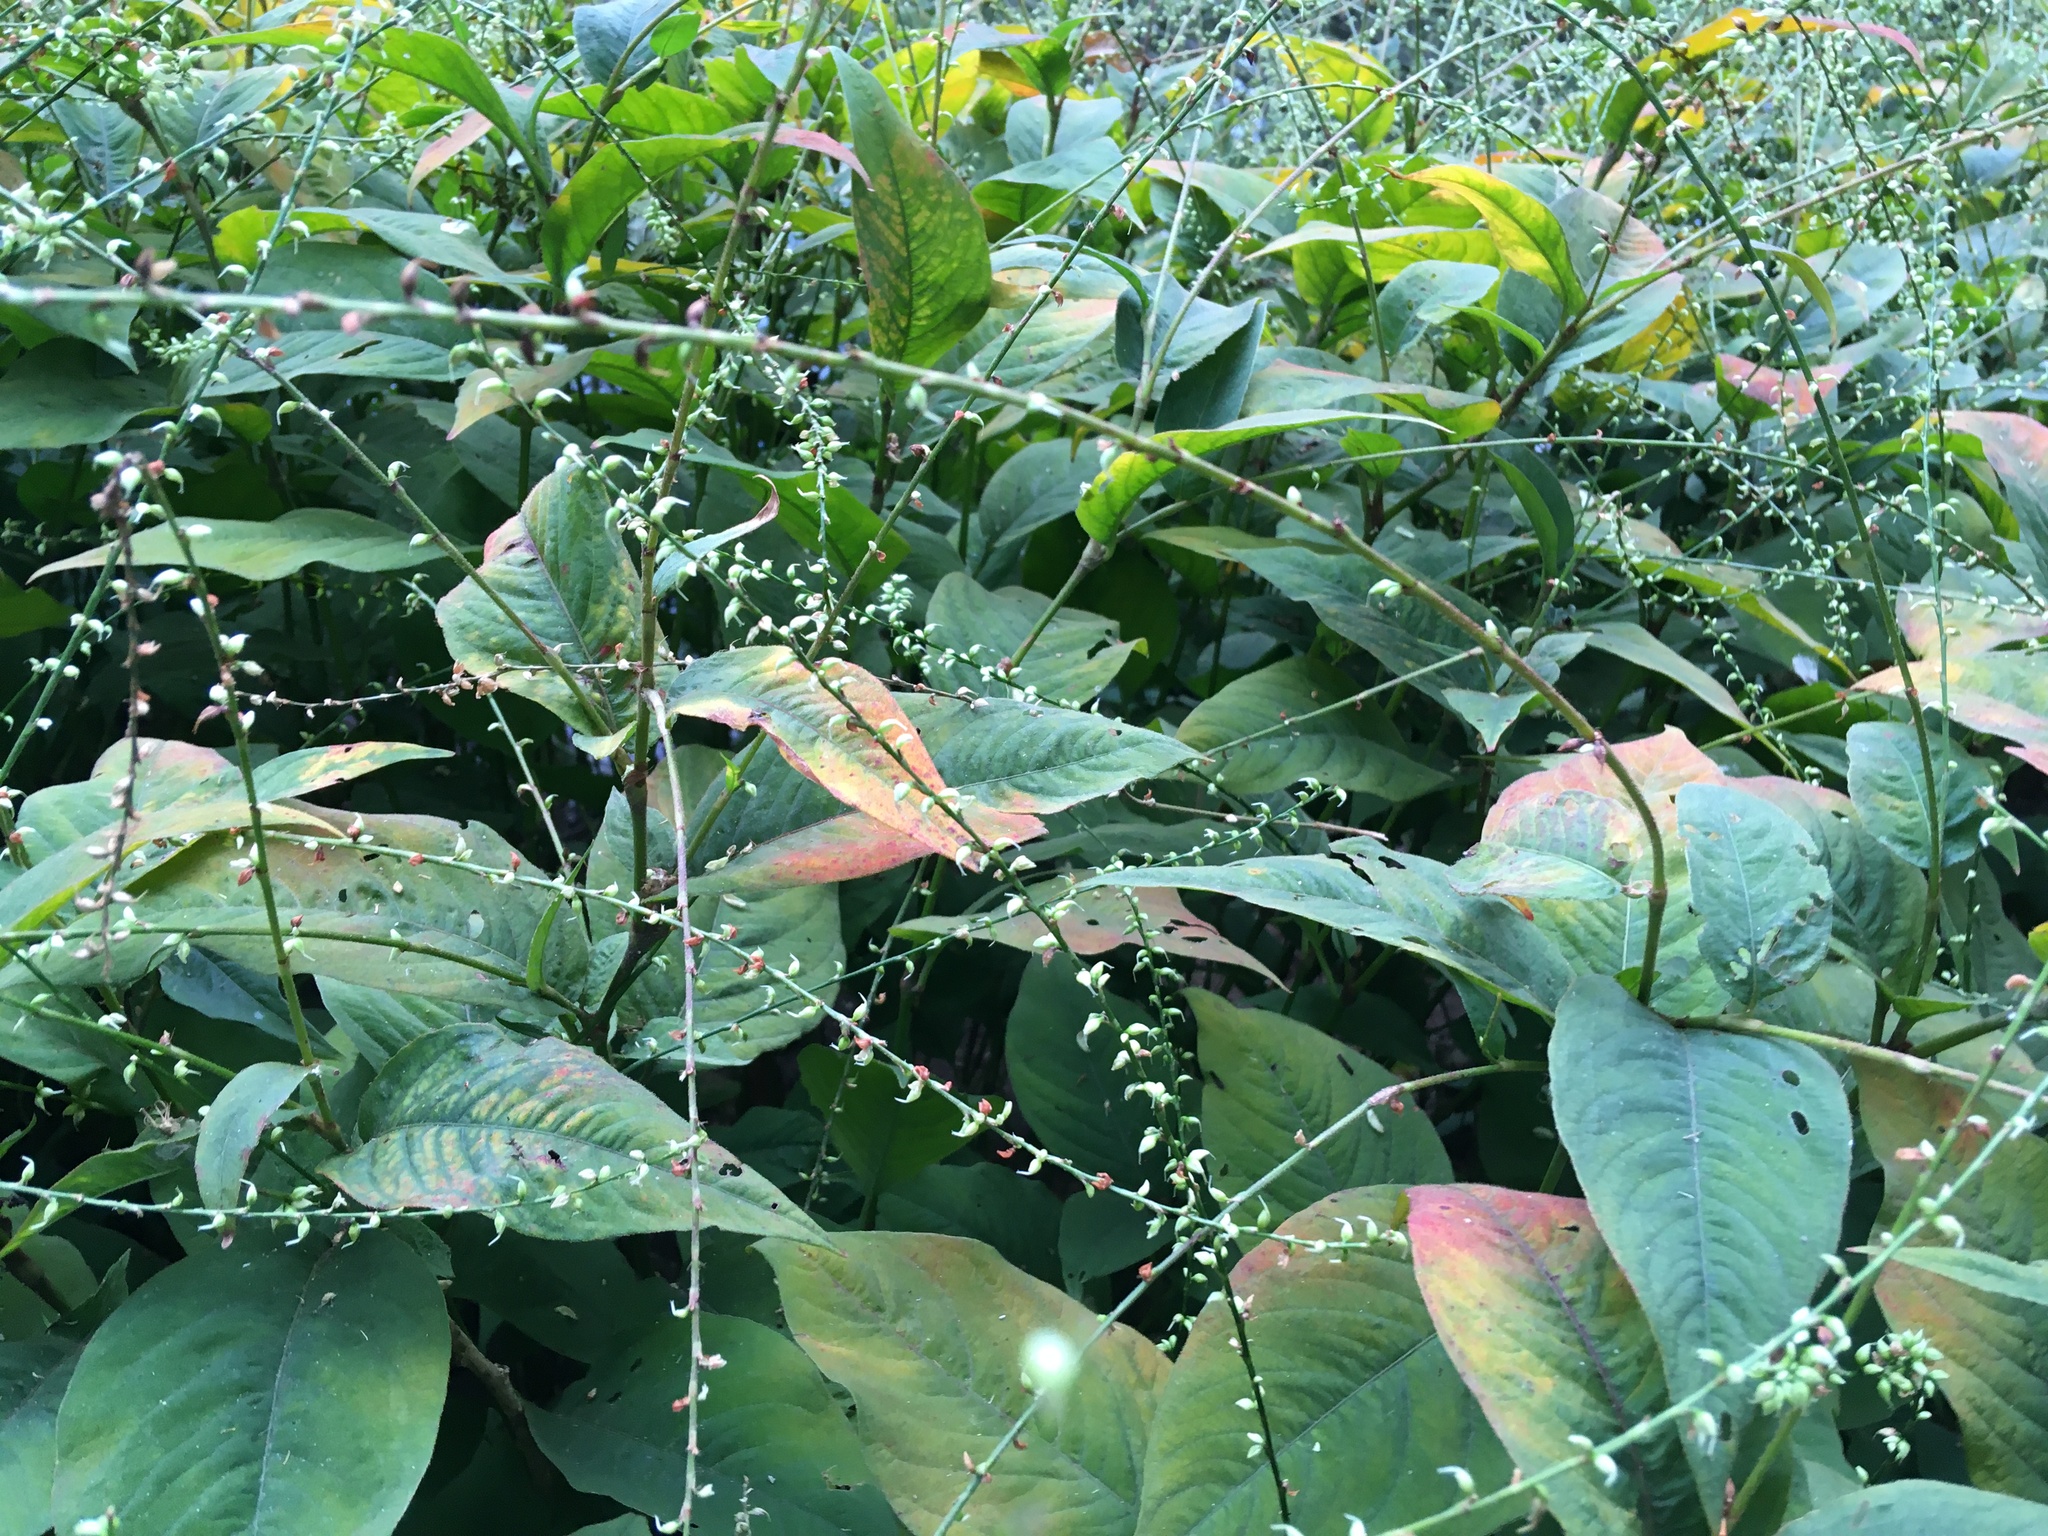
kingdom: Plantae
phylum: Tracheophyta
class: Magnoliopsida
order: Caryophyllales
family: Polygonaceae
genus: Persicaria
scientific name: Persicaria virginiana
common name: Jumpseed
